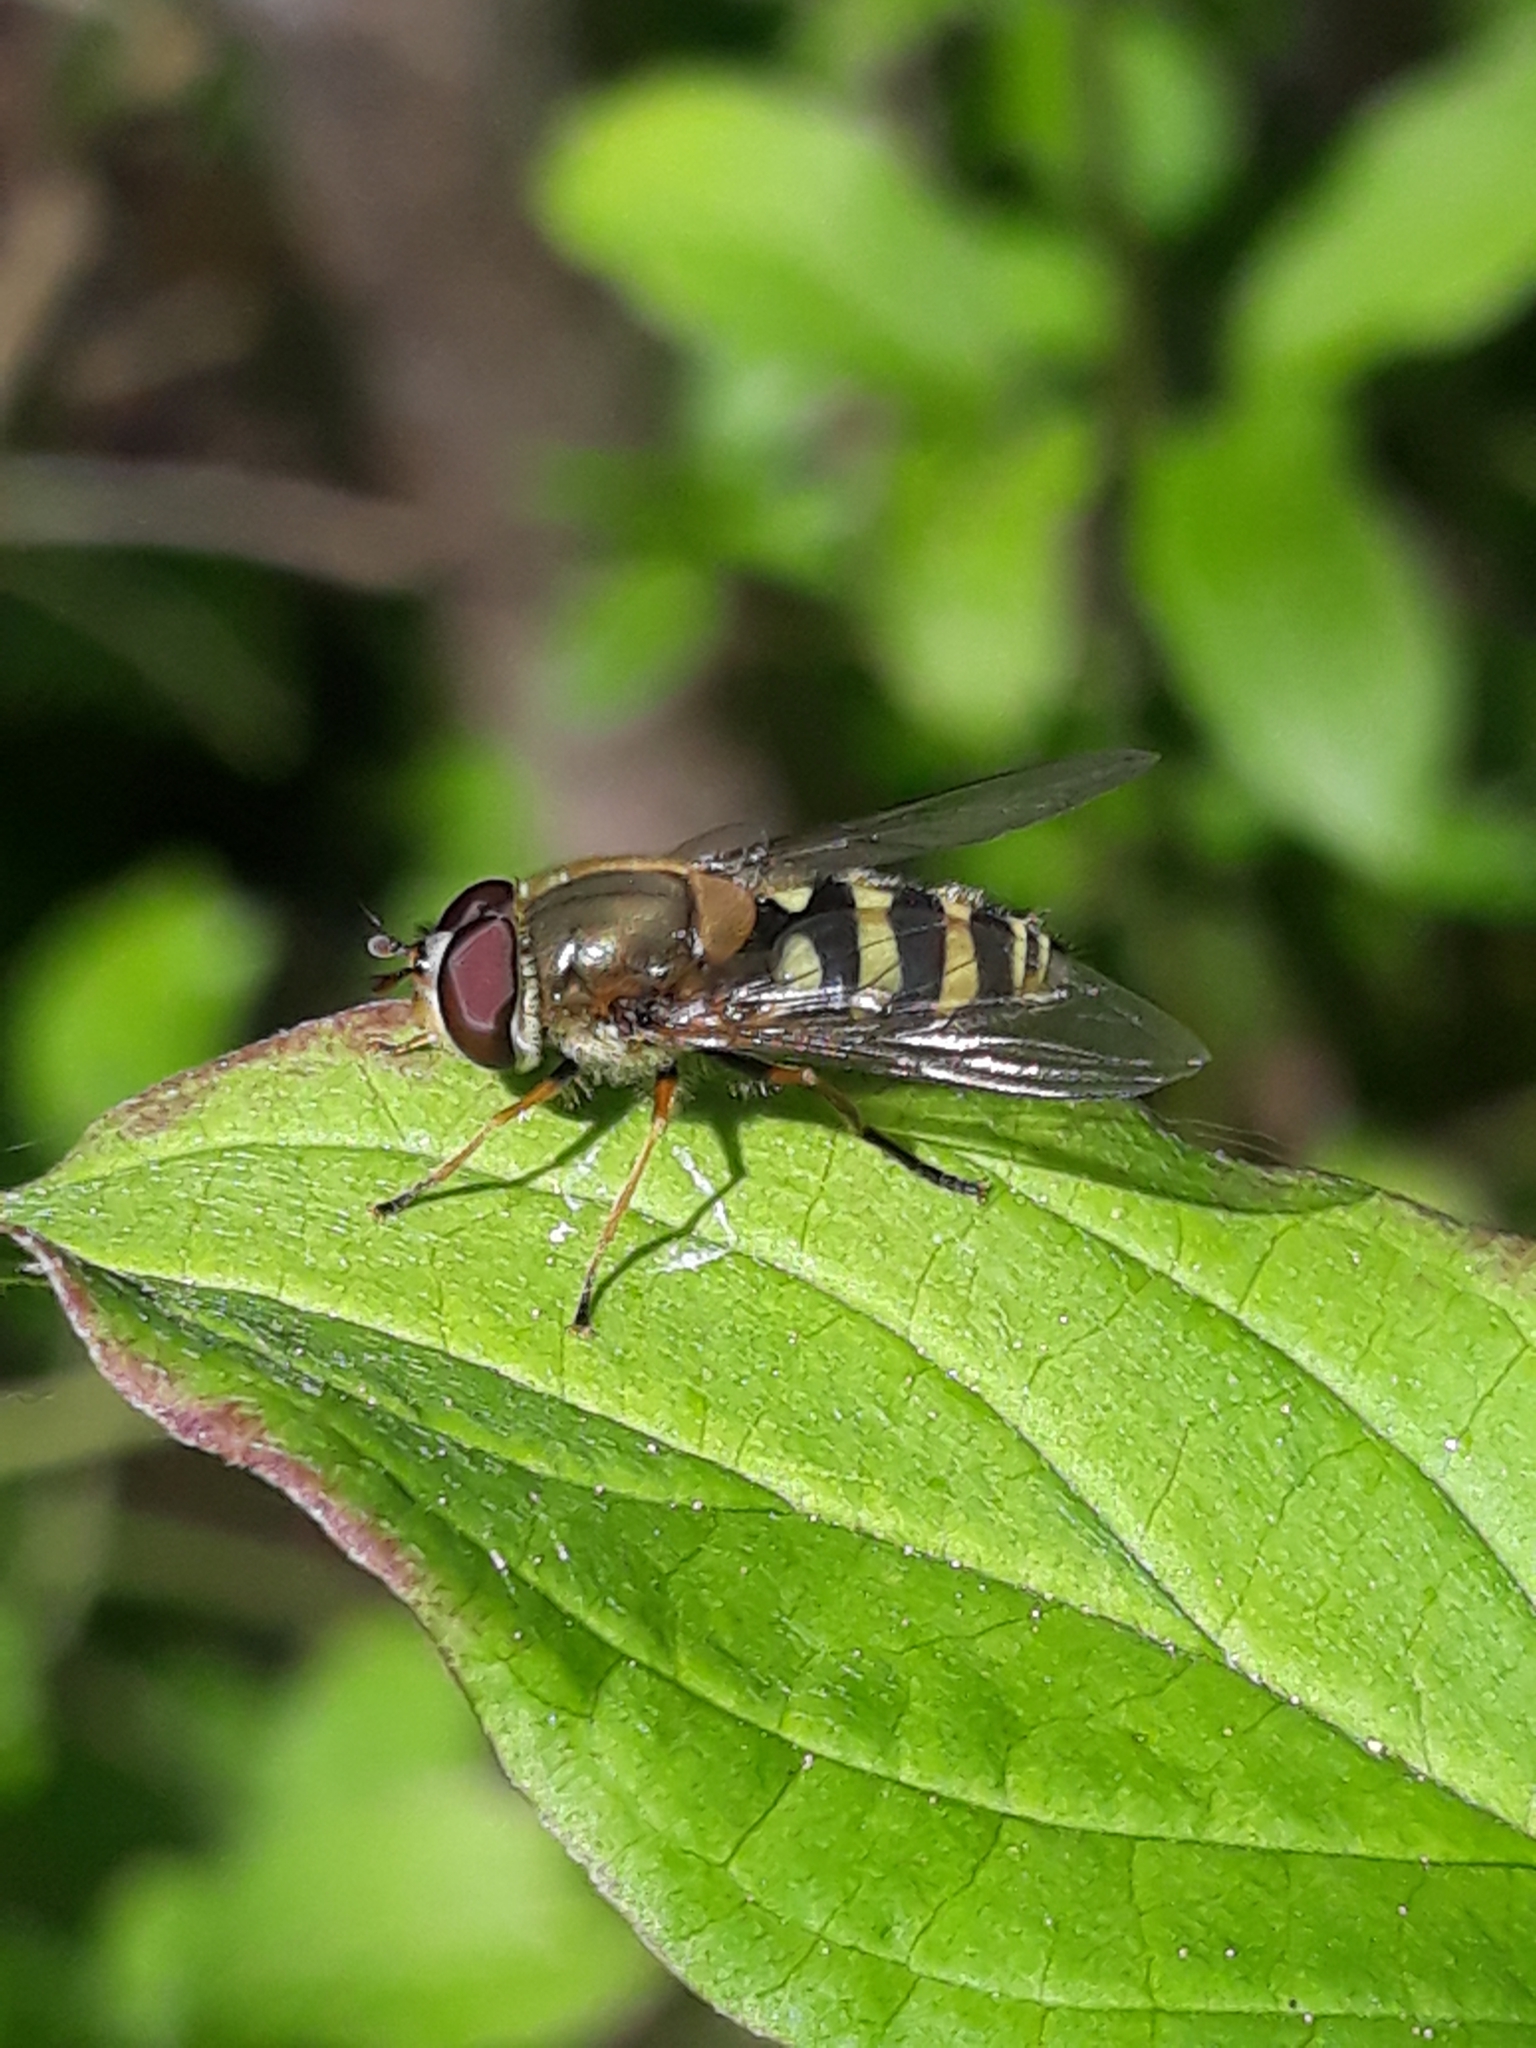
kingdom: Animalia
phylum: Arthropoda
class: Insecta
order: Diptera
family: Syrphidae
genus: Syrphus
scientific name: Syrphus
